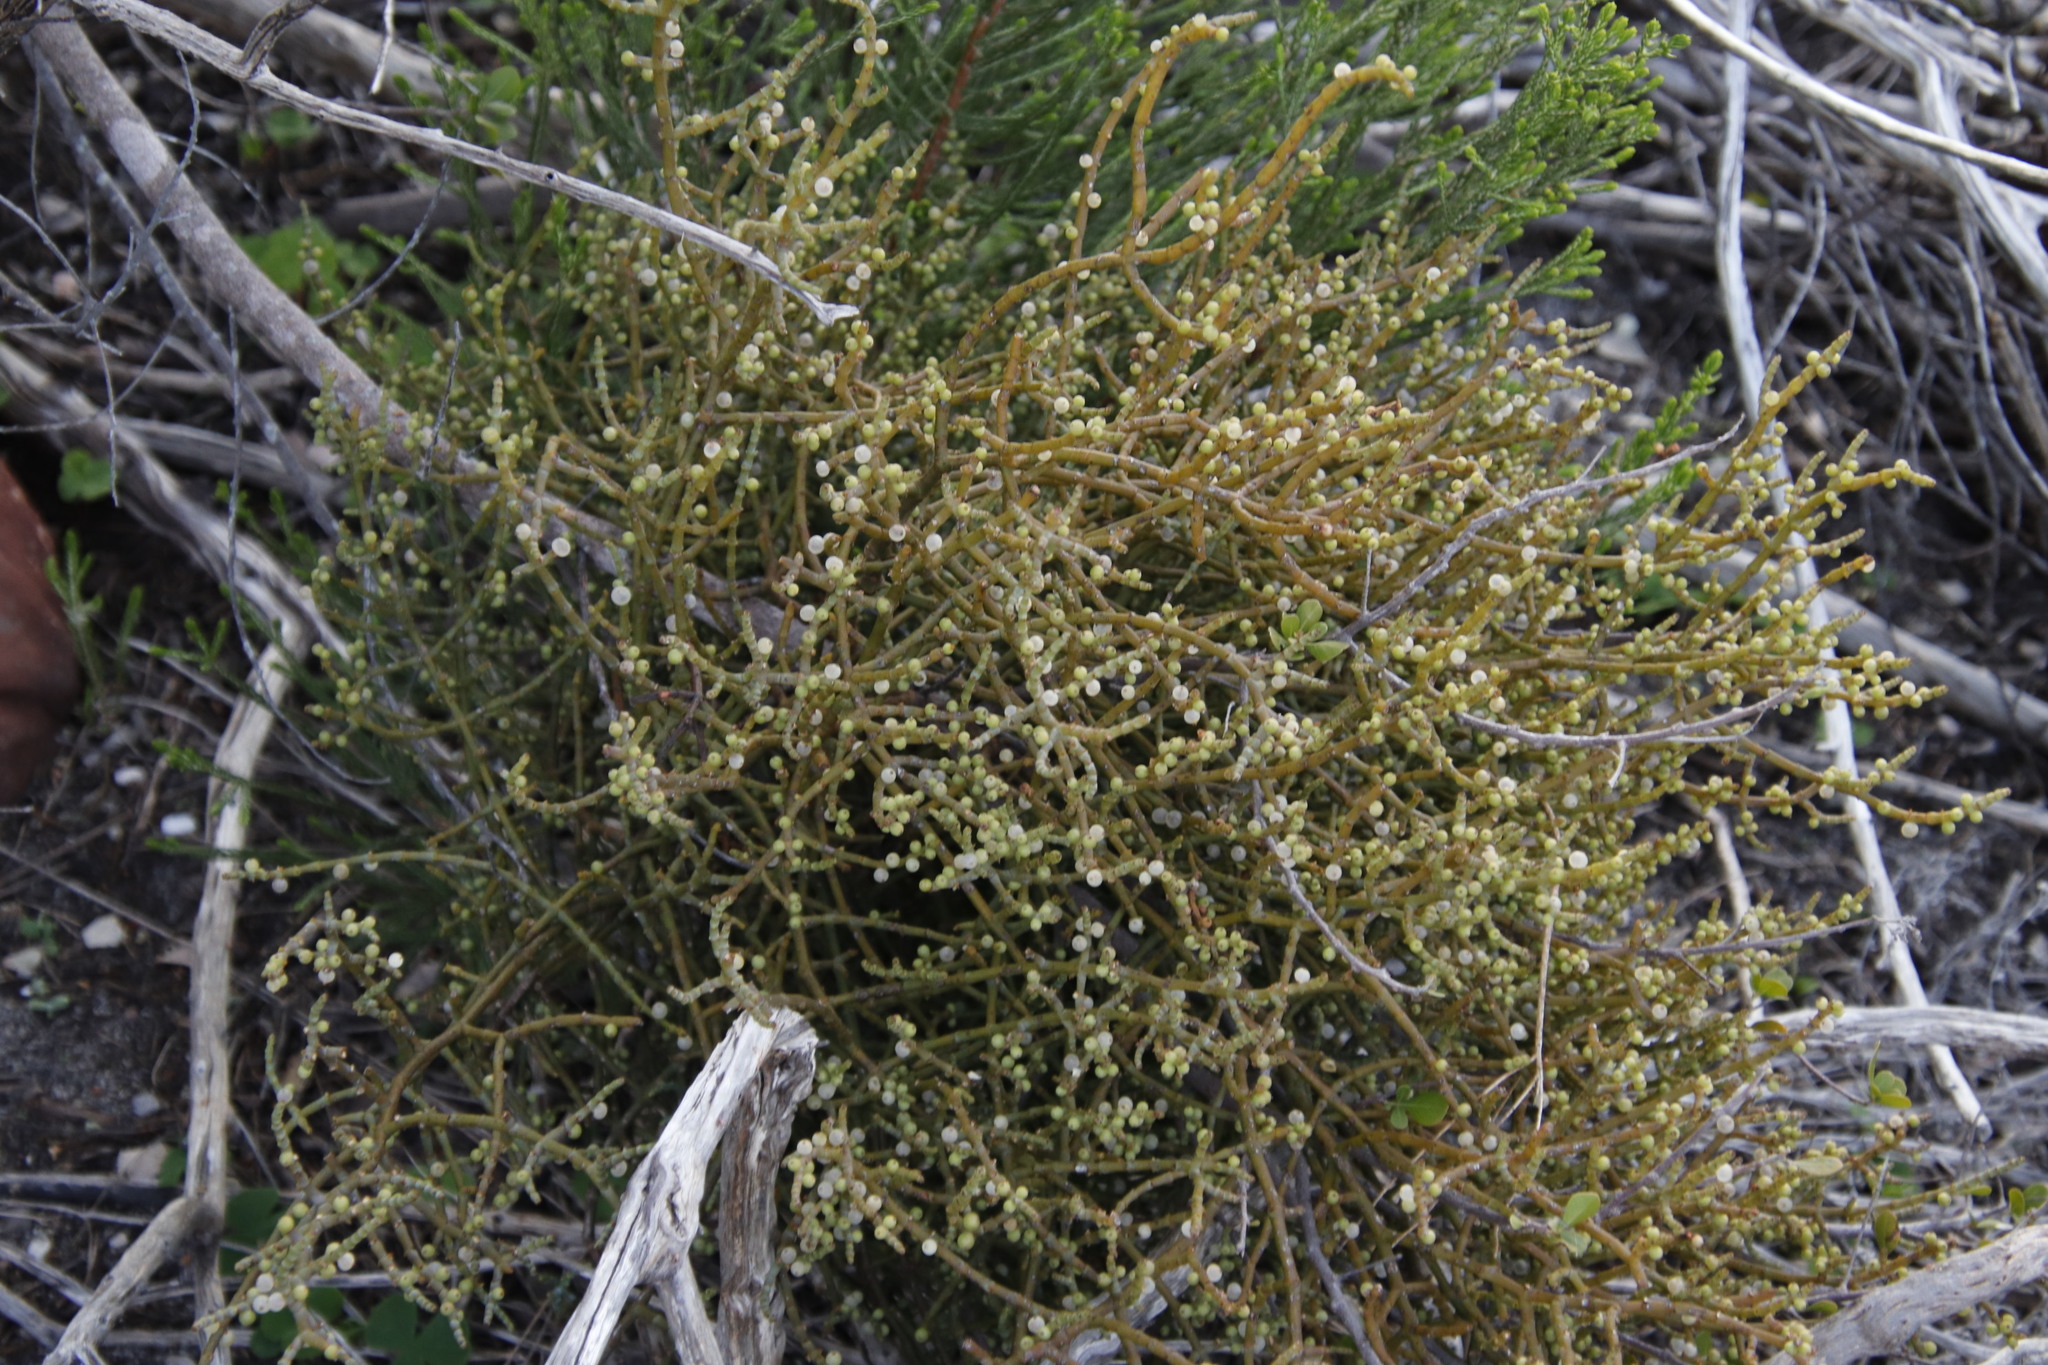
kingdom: Plantae
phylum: Tracheophyta
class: Magnoliopsida
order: Santalales
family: Viscaceae
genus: Viscum
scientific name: Viscum capense
